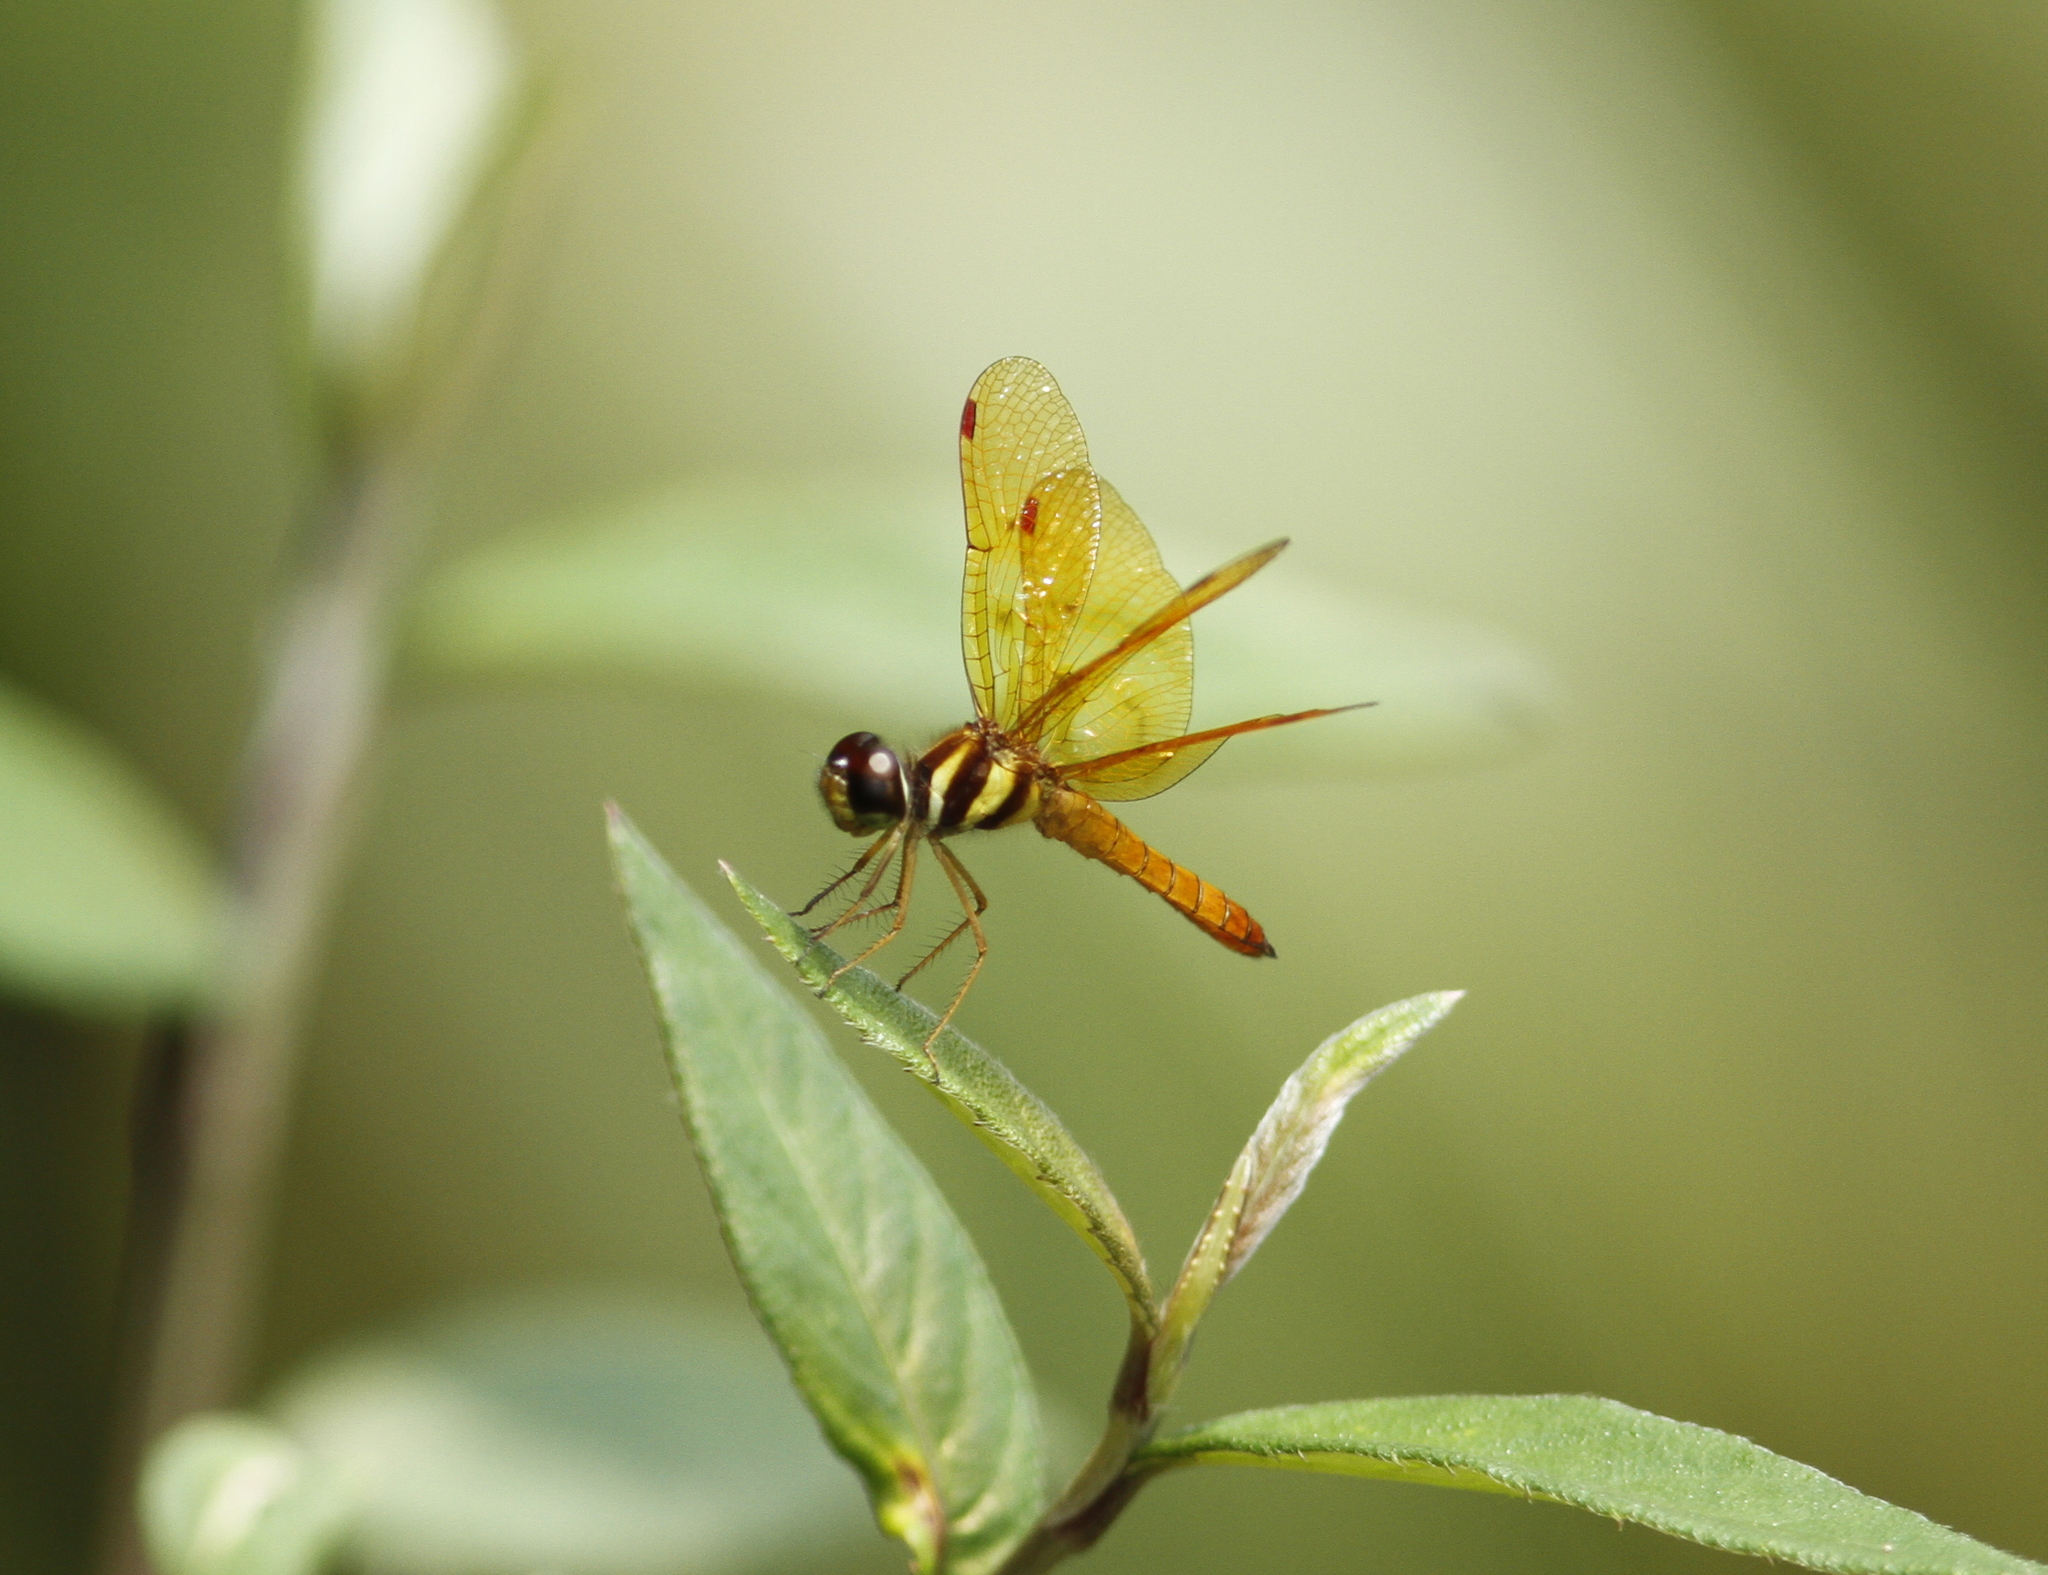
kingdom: Animalia
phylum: Arthropoda
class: Insecta
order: Odonata
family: Libellulidae
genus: Perithemis
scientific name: Perithemis lais
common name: Fine-banded amberwing
